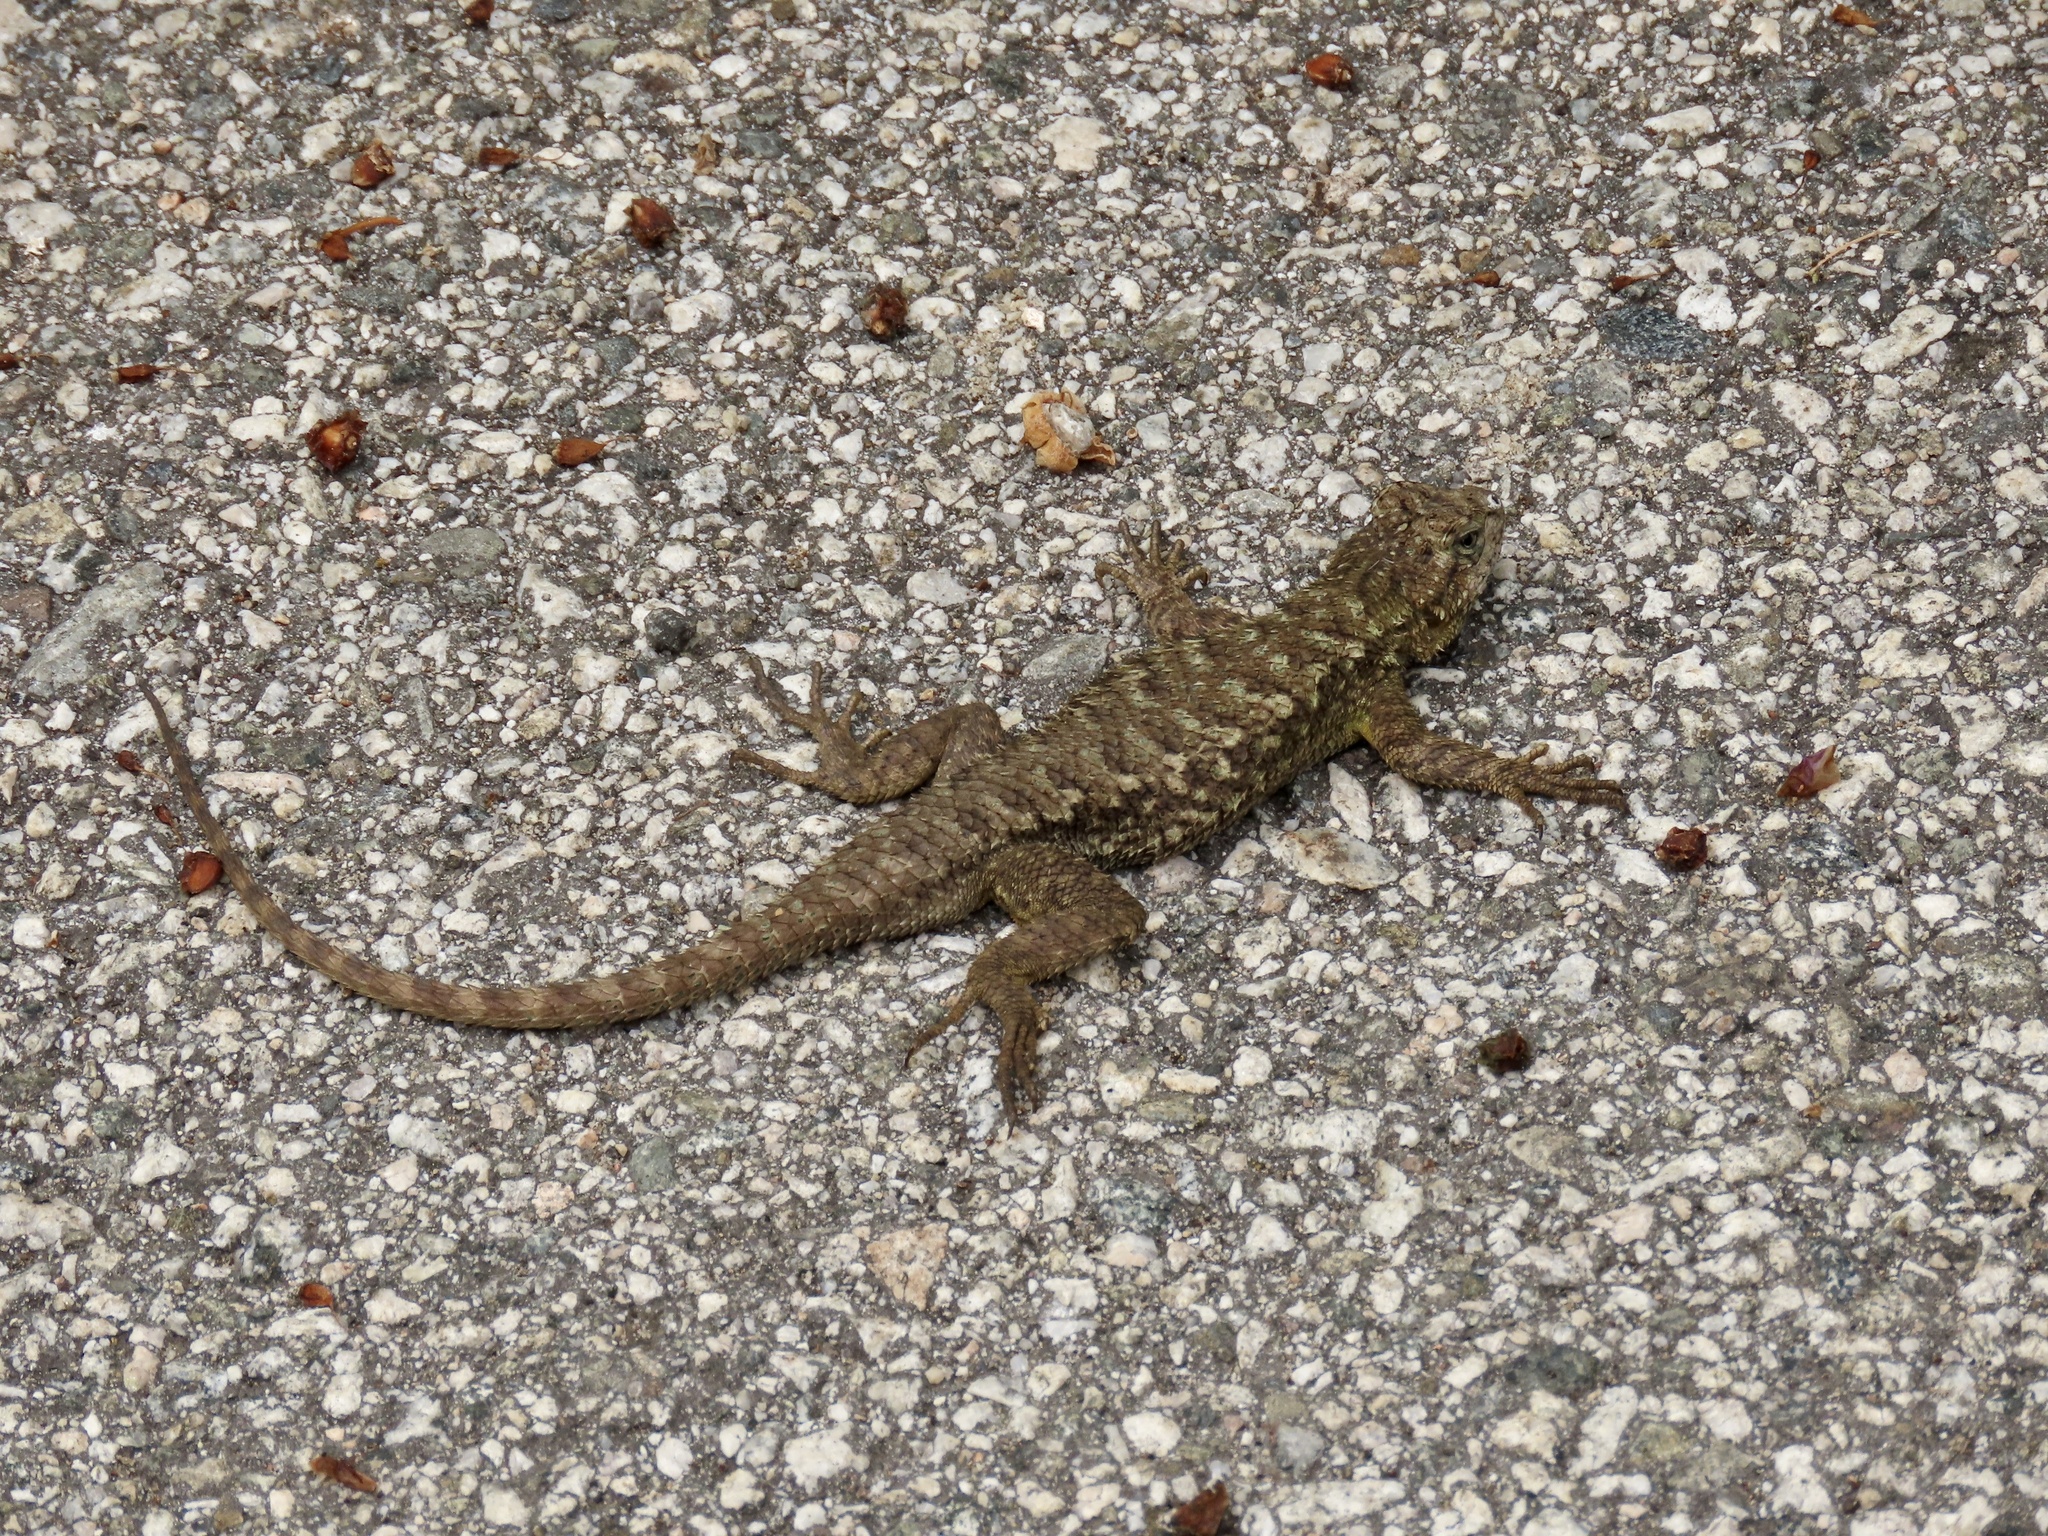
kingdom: Animalia
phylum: Chordata
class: Squamata
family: Phrynosomatidae
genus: Sceloporus
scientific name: Sceloporus occidentalis
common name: Western fence lizard
